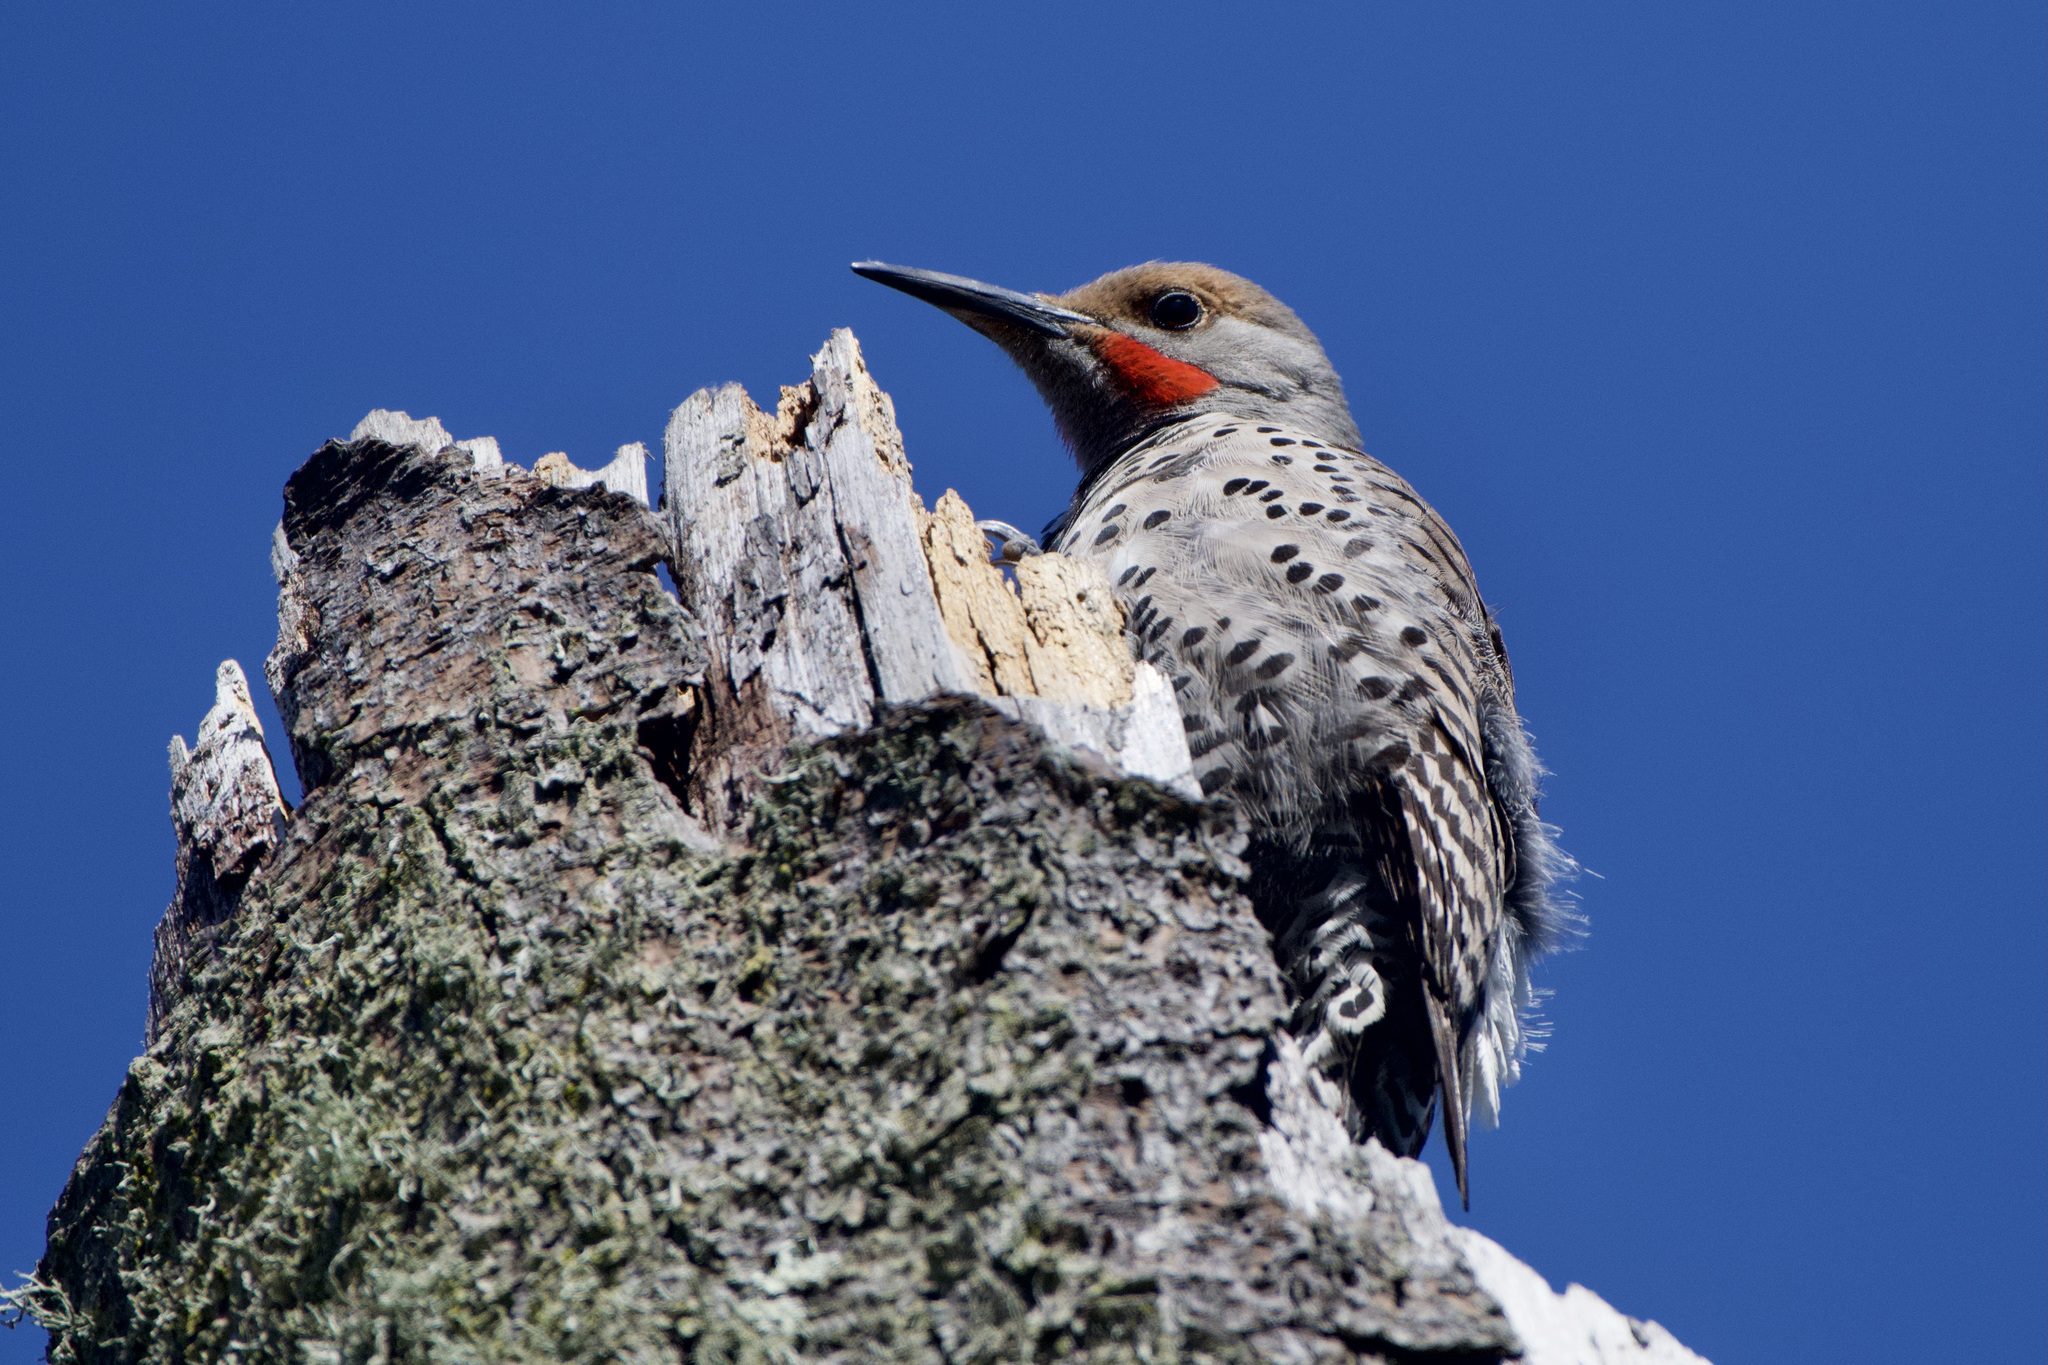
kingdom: Animalia
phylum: Chordata
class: Aves
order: Piciformes
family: Picidae
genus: Colaptes
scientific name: Colaptes auratus
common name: Northern flicker
